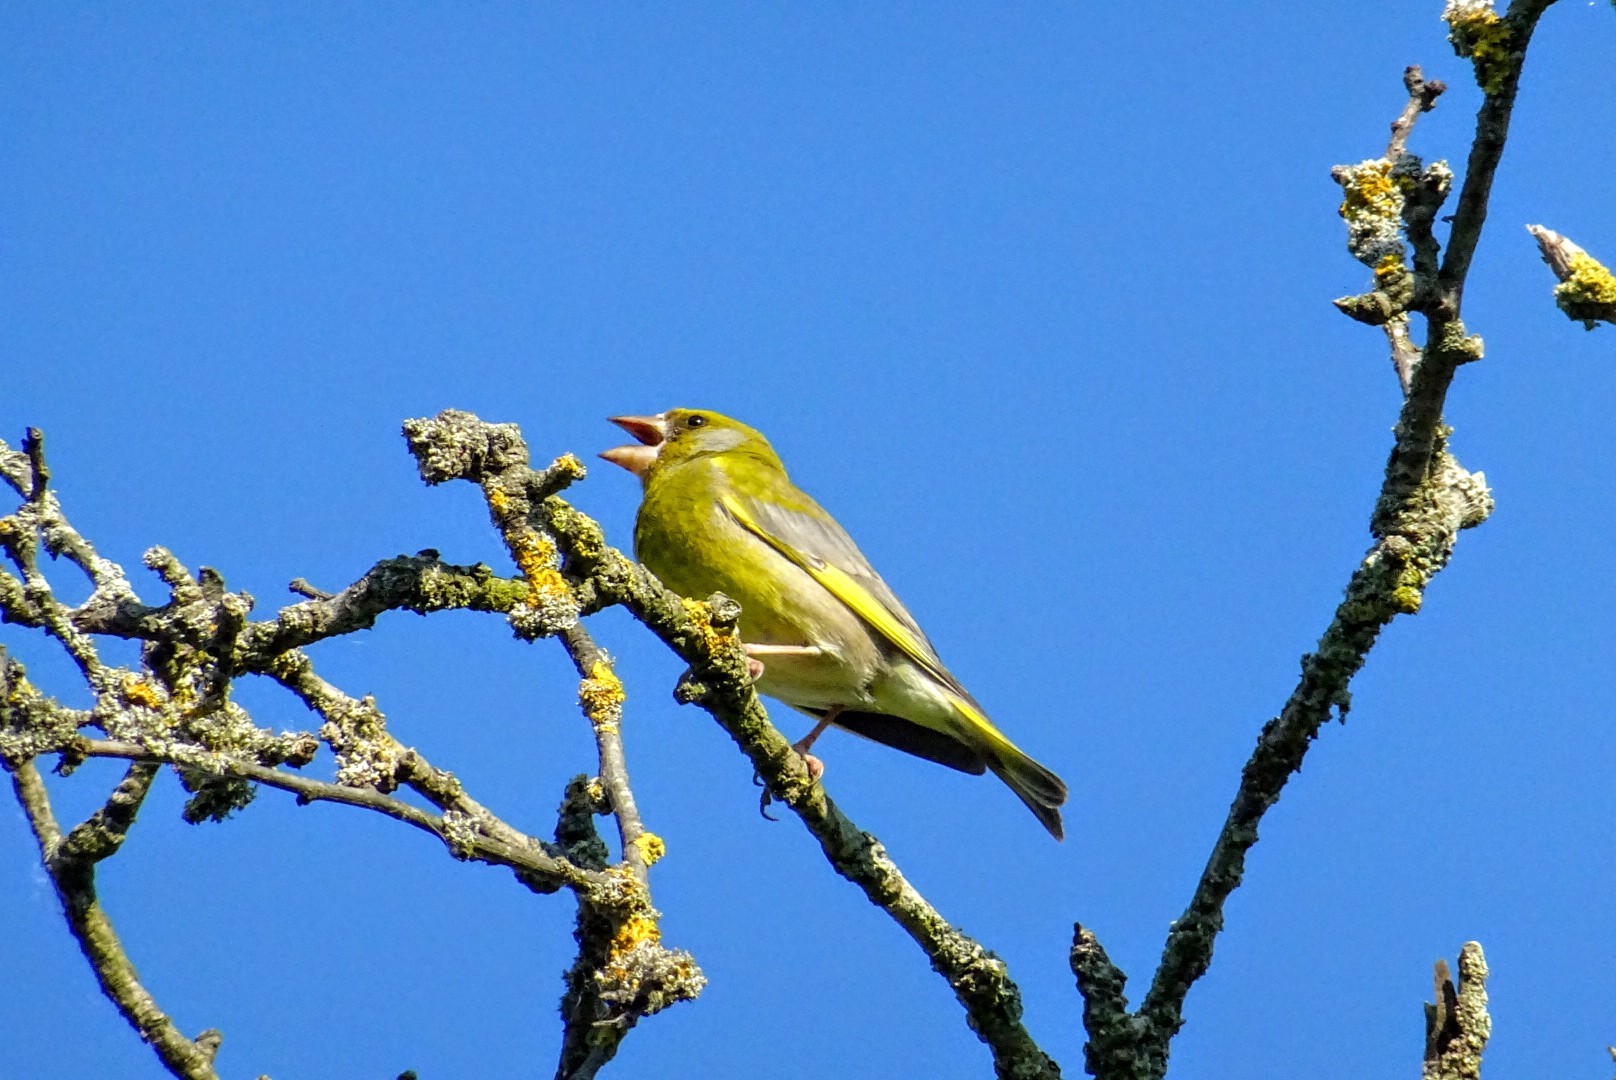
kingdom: Plantae
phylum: Tracheophyta
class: Liliopsida
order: Poales
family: Poaceae
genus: Chloris
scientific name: Chloris chloris
